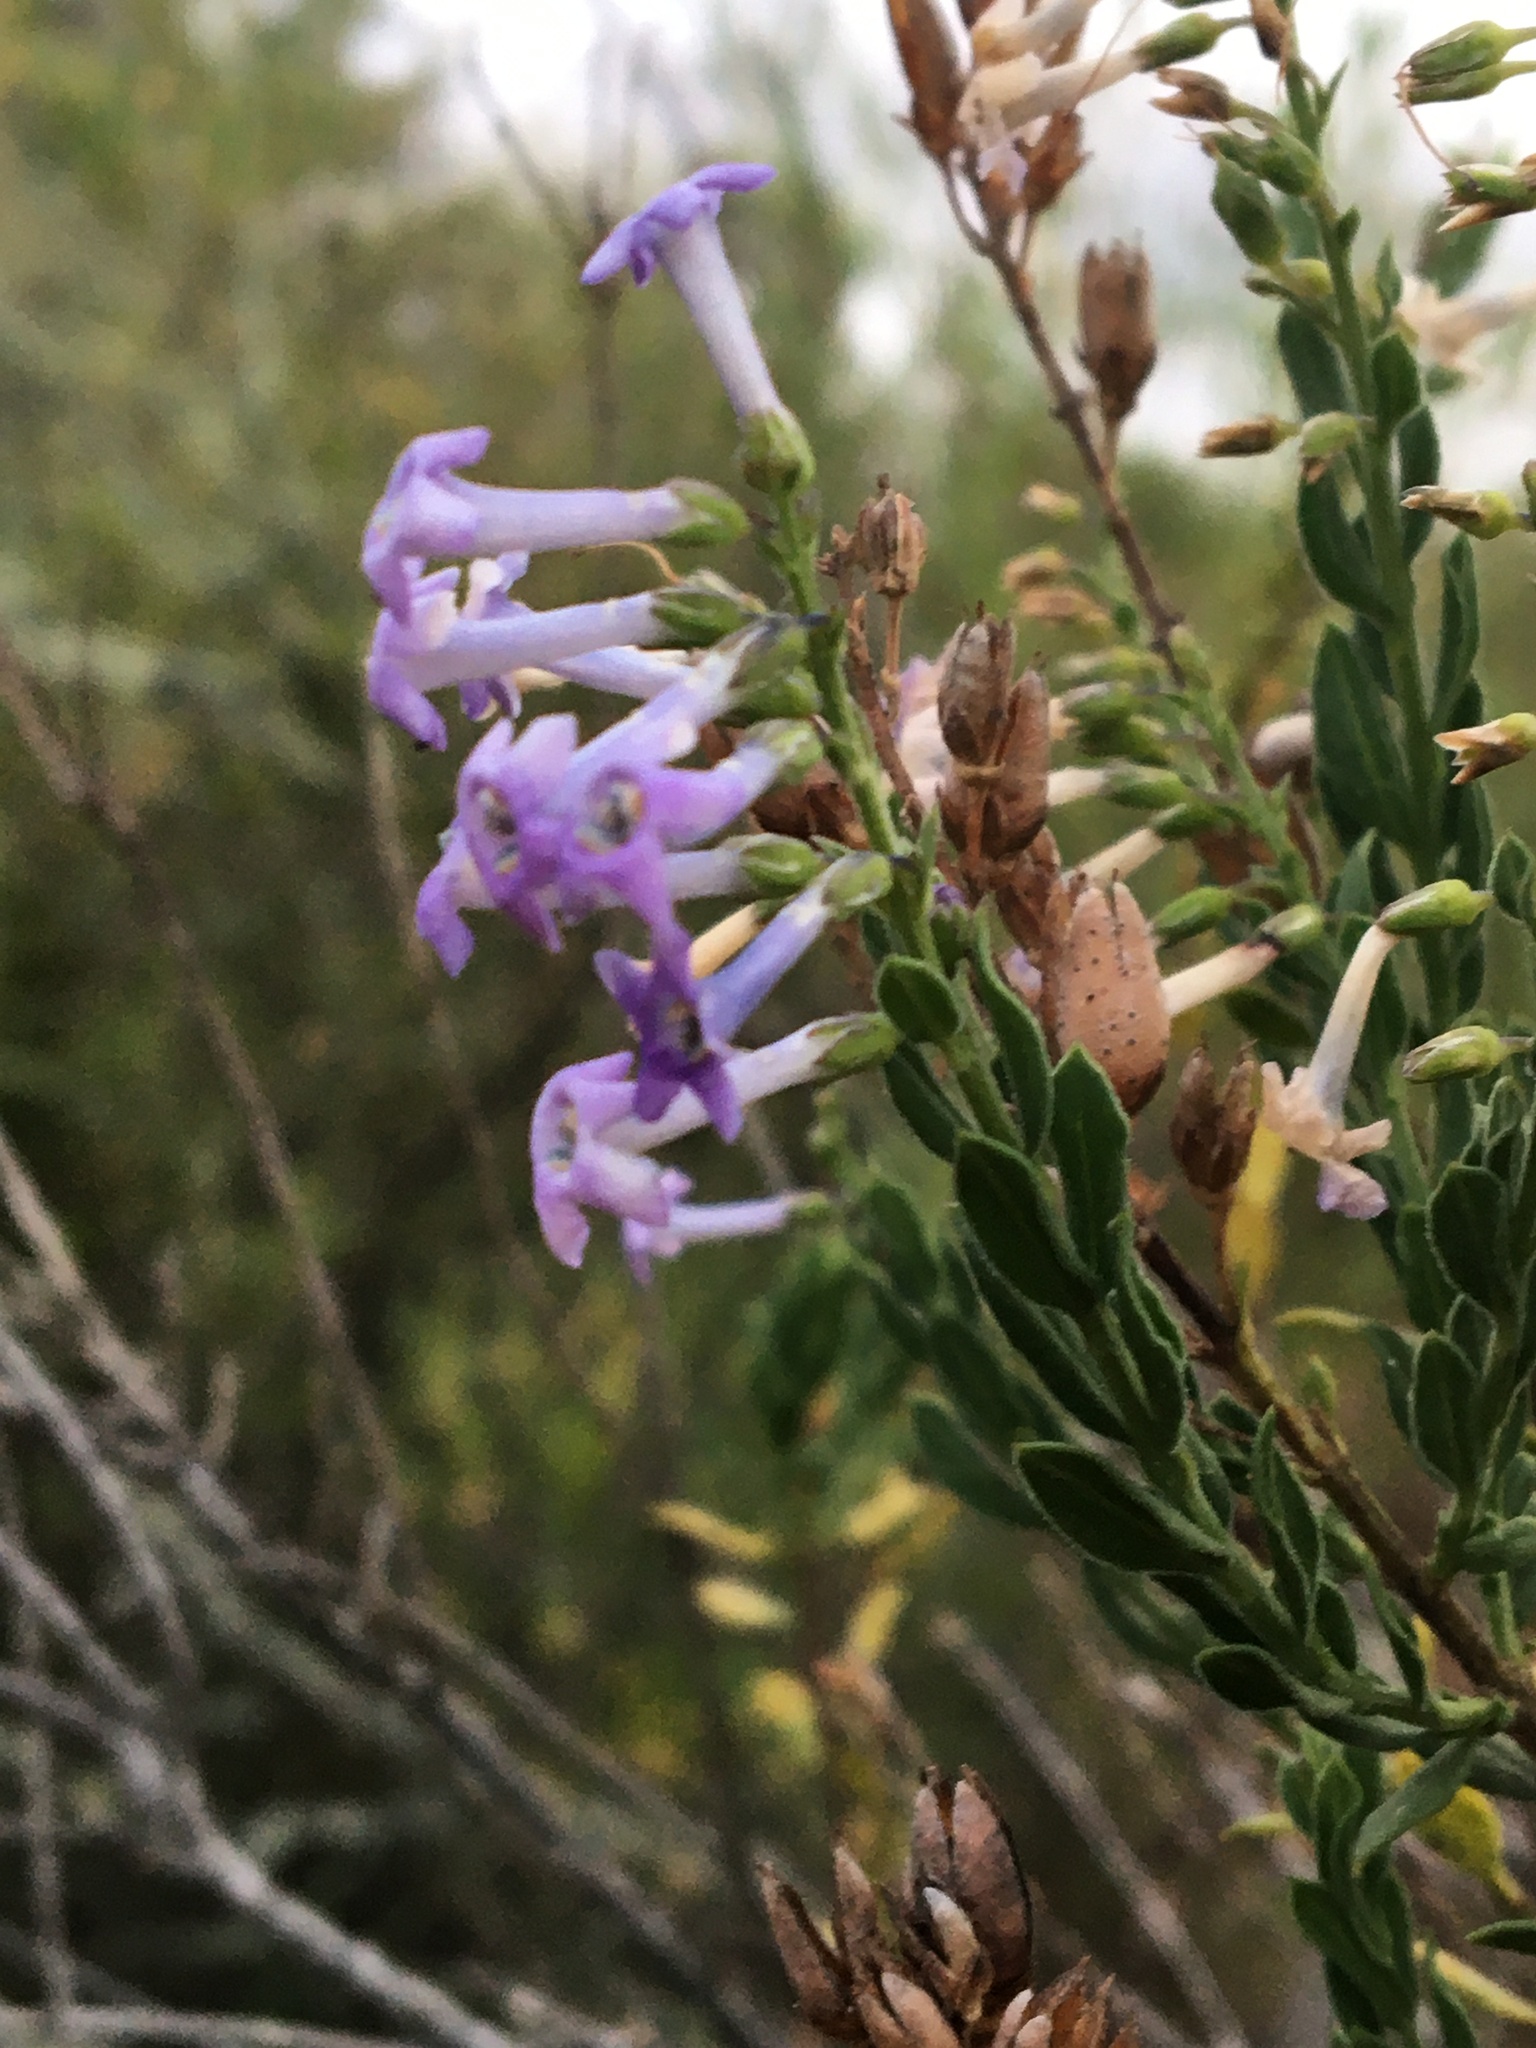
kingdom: Plantae
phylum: Tracheophyta
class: Magnoliopsida
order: Lamiales
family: Scrophulariaceae
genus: Freylinia
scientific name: Freylinia undulata
